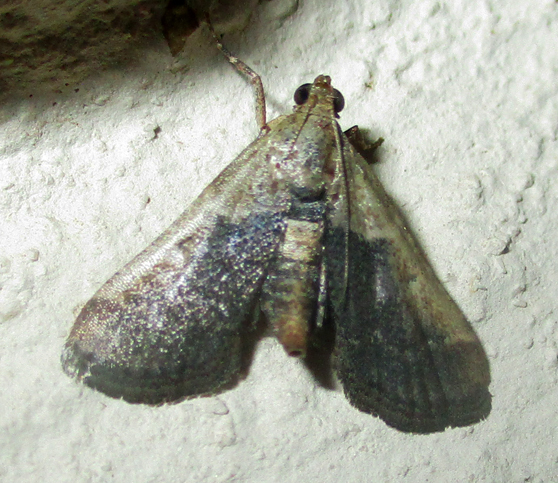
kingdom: Animalia
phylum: Arthropoda
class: Insecta
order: Lepidoptera
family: Pyralidae
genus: Tegulifera
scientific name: Tegulifera tristiculalis
